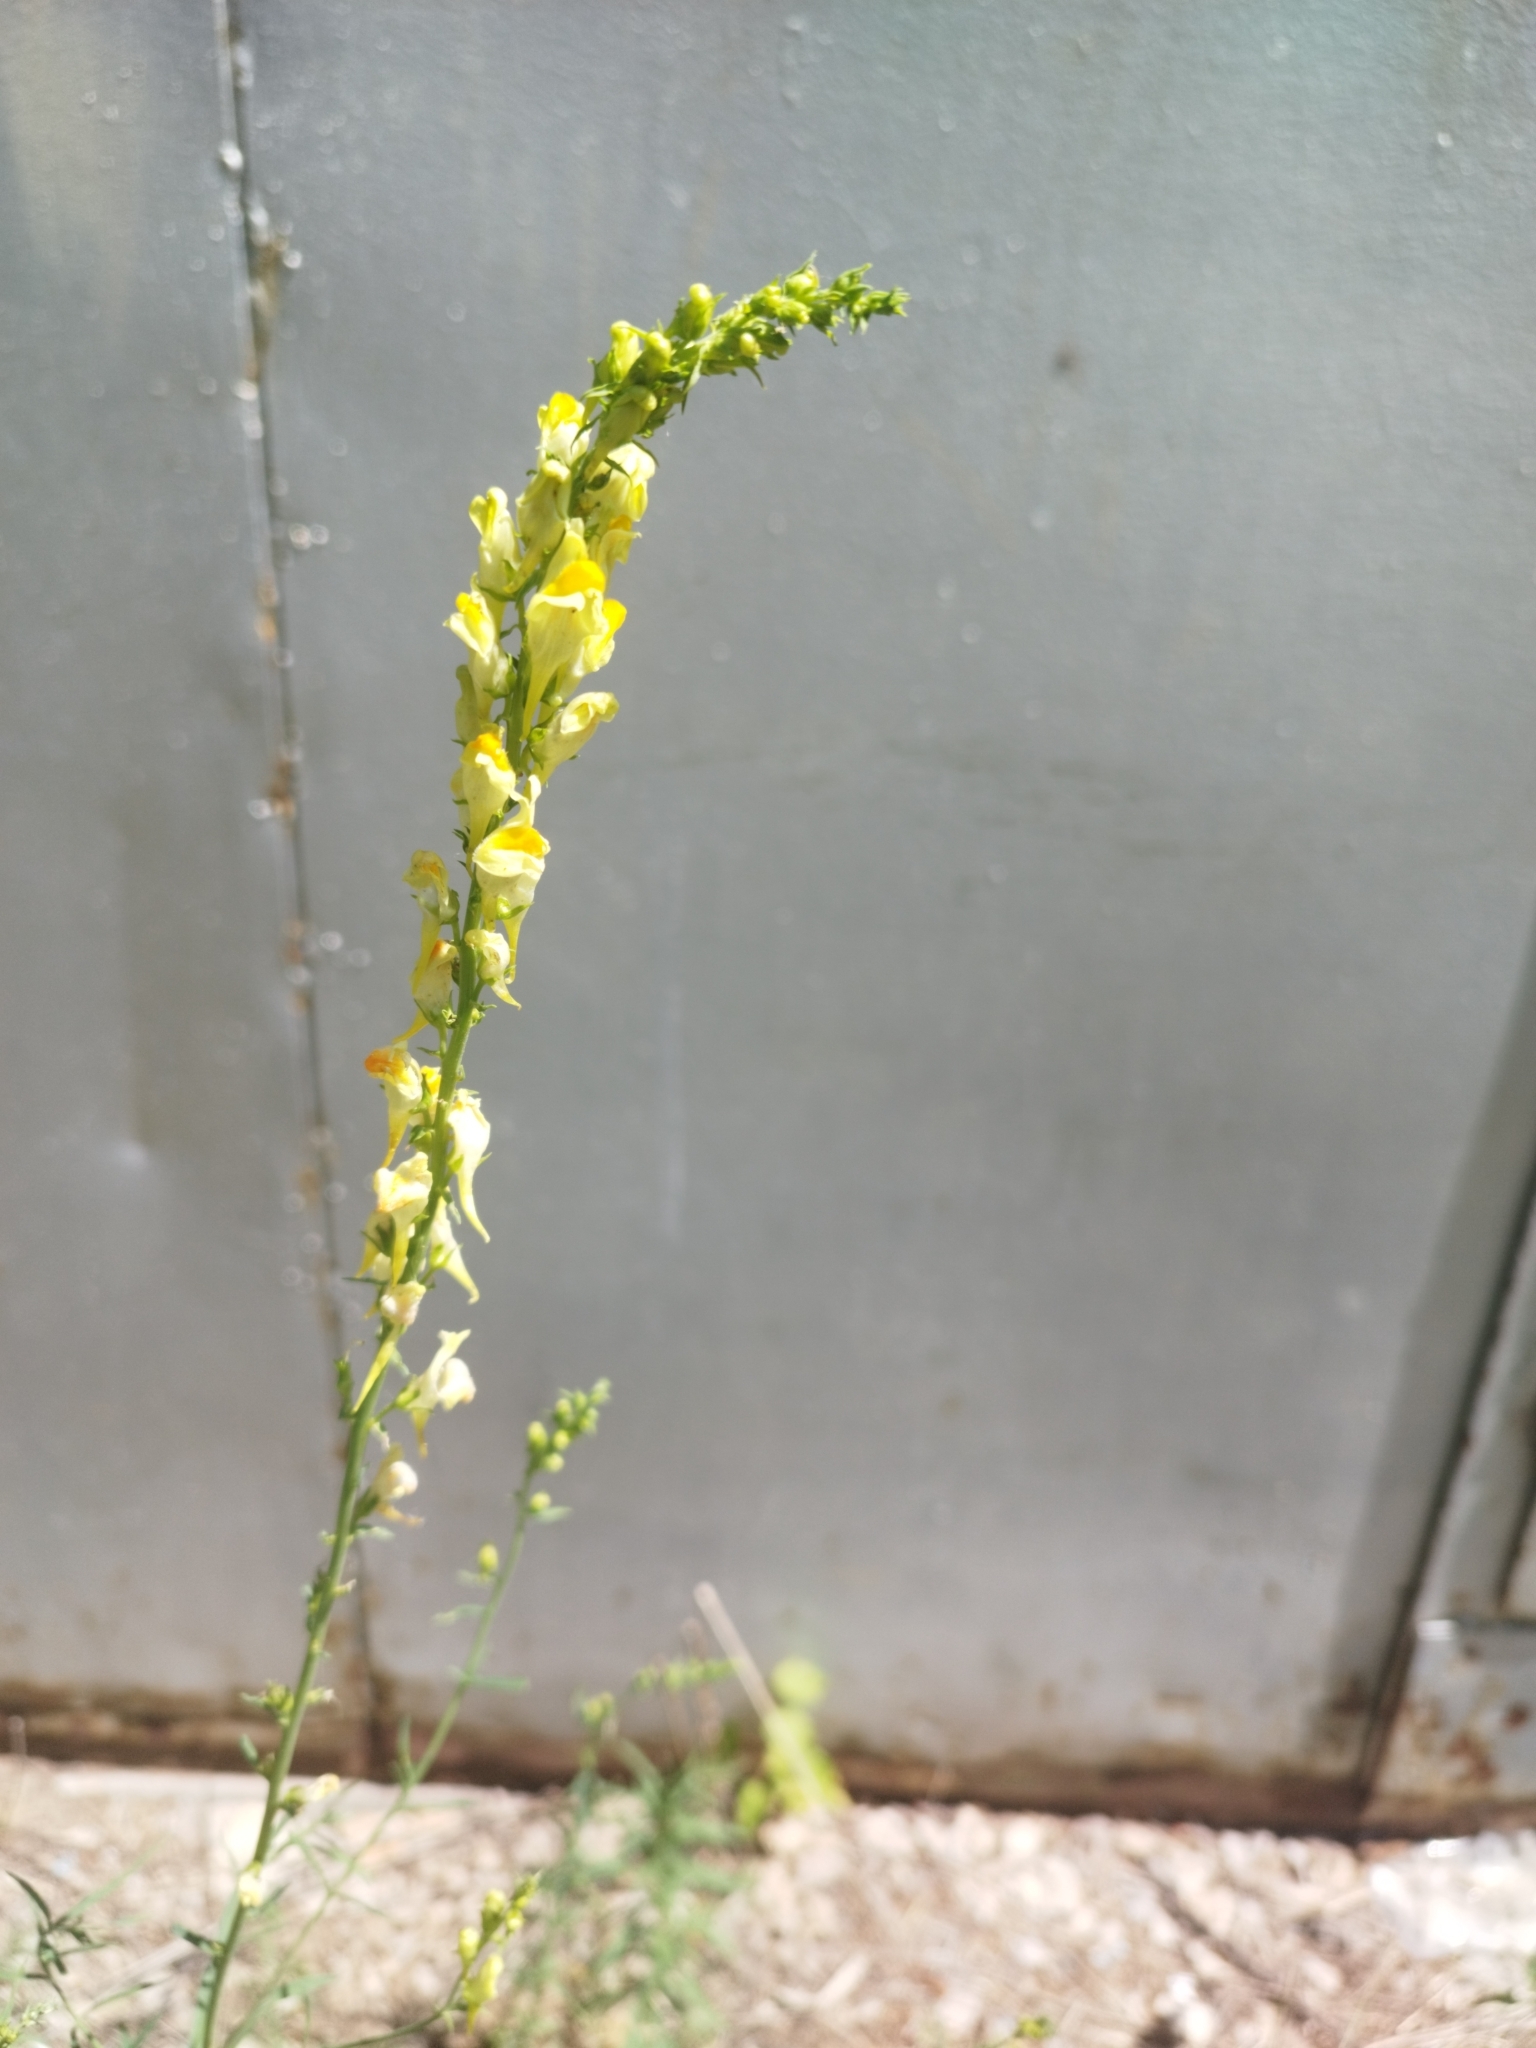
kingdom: Plantae
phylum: Tracheophyta
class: Magnoliopsida
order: Lamiales
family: Plantaginaceae
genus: Linaria
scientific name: Linaria vulgaris
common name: Butter and eggs
